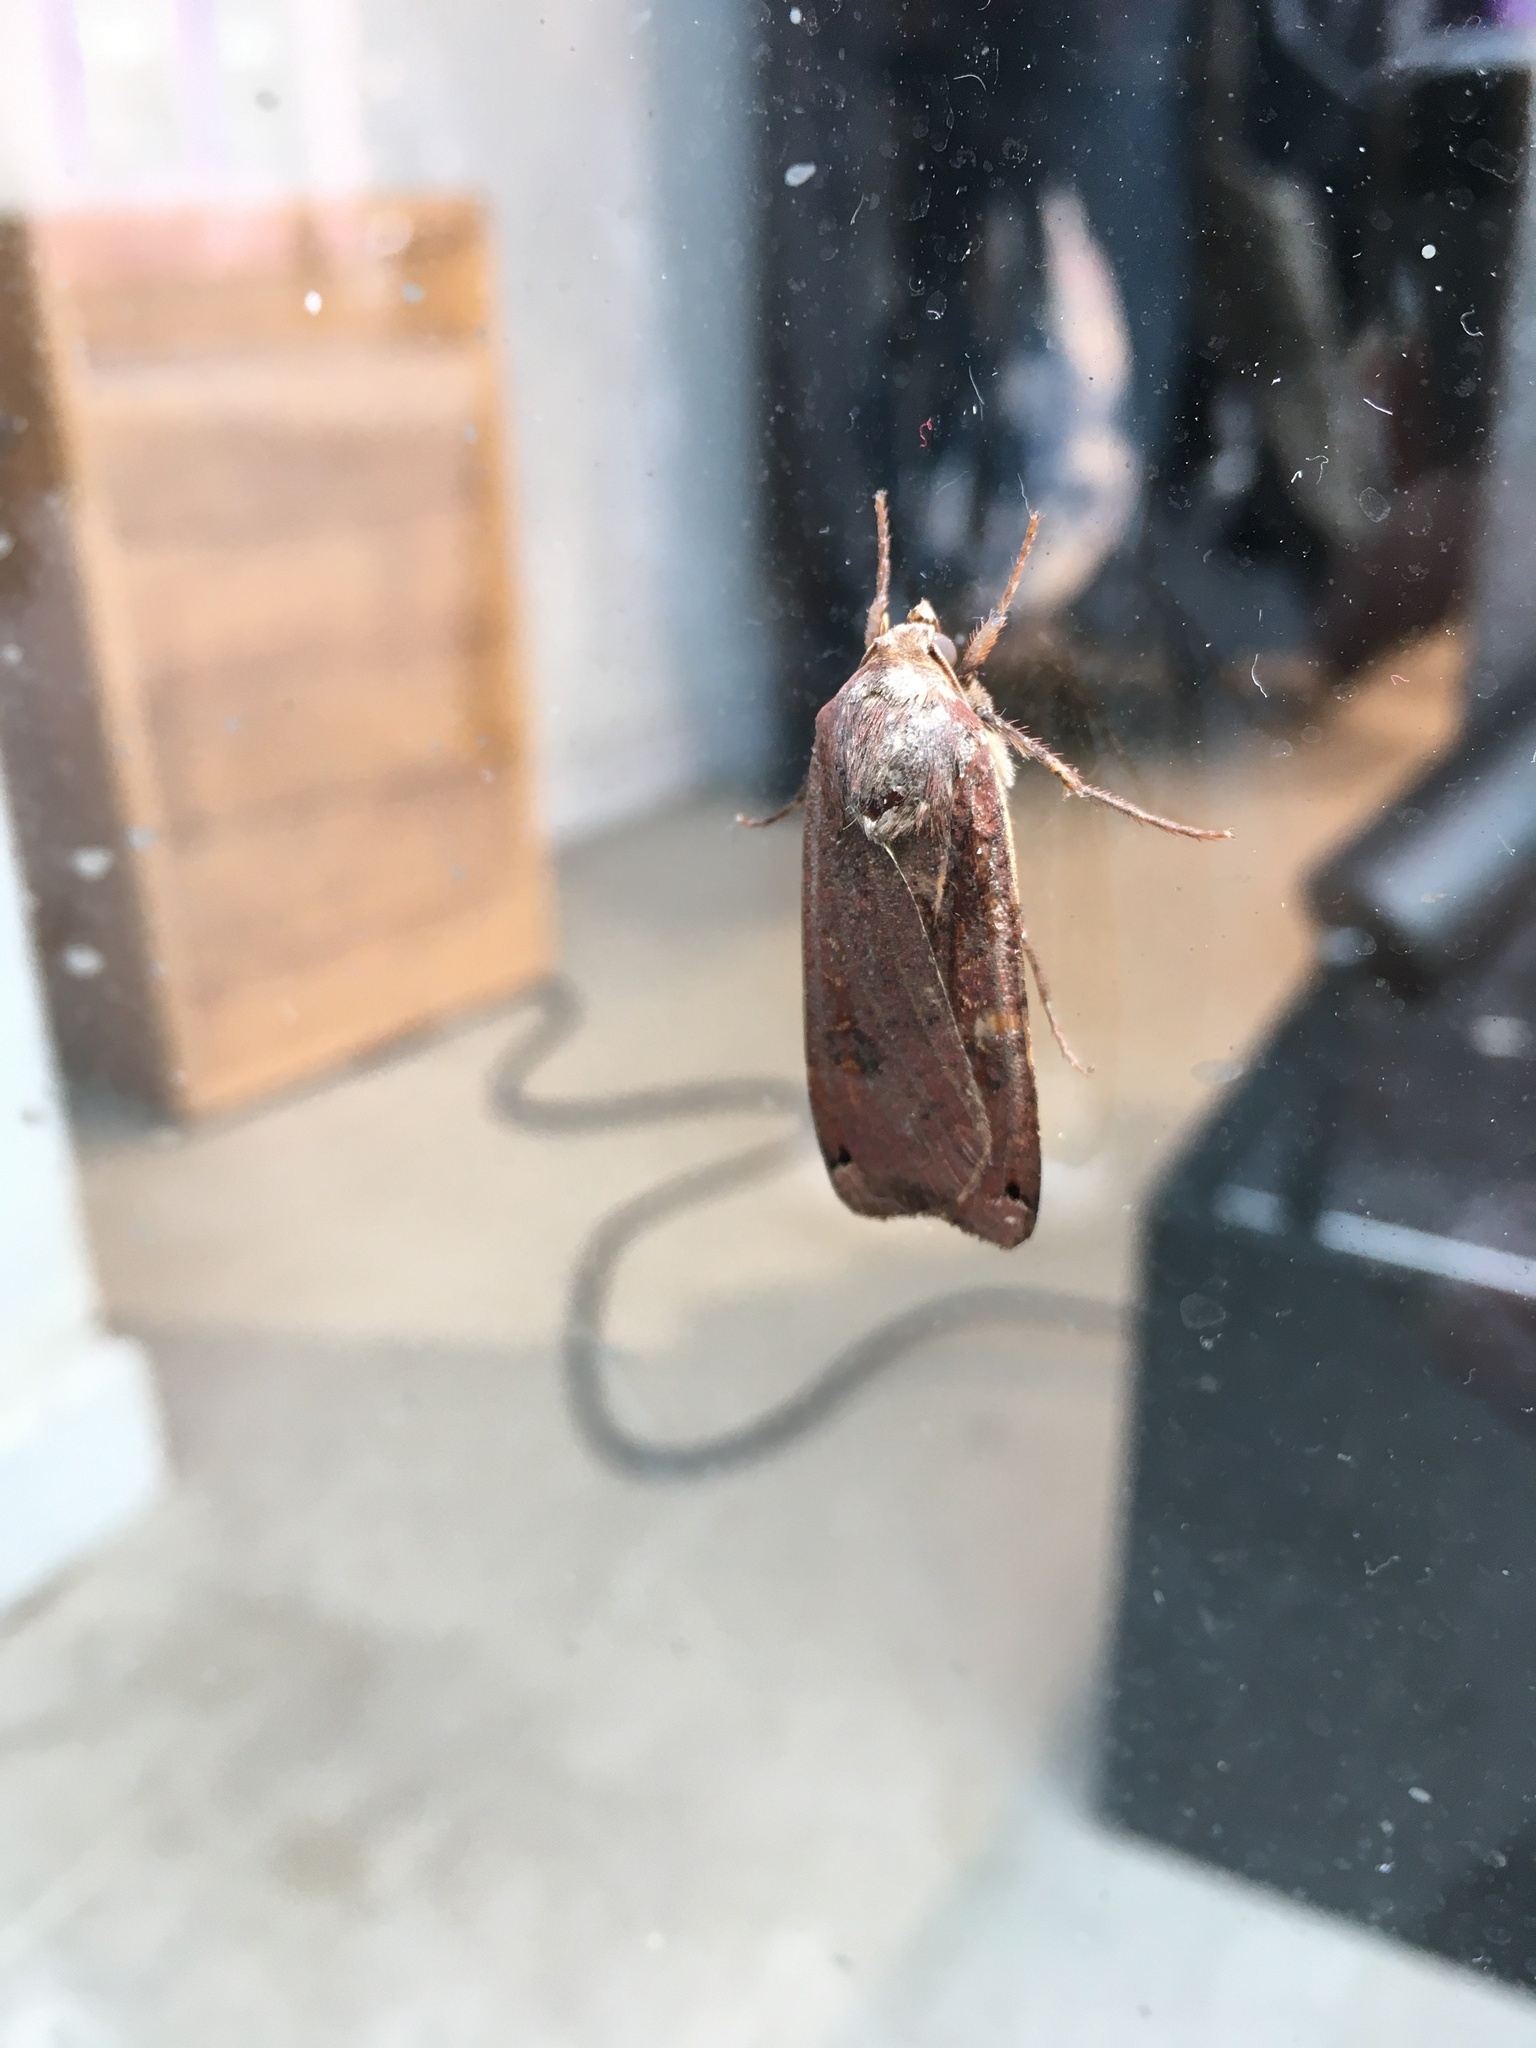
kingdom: Animalia
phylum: Arthropoda
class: Insecta
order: Lepidoptera
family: Noctuidae
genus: Noctua
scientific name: Noctua pronuba
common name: Large yellow underwing
